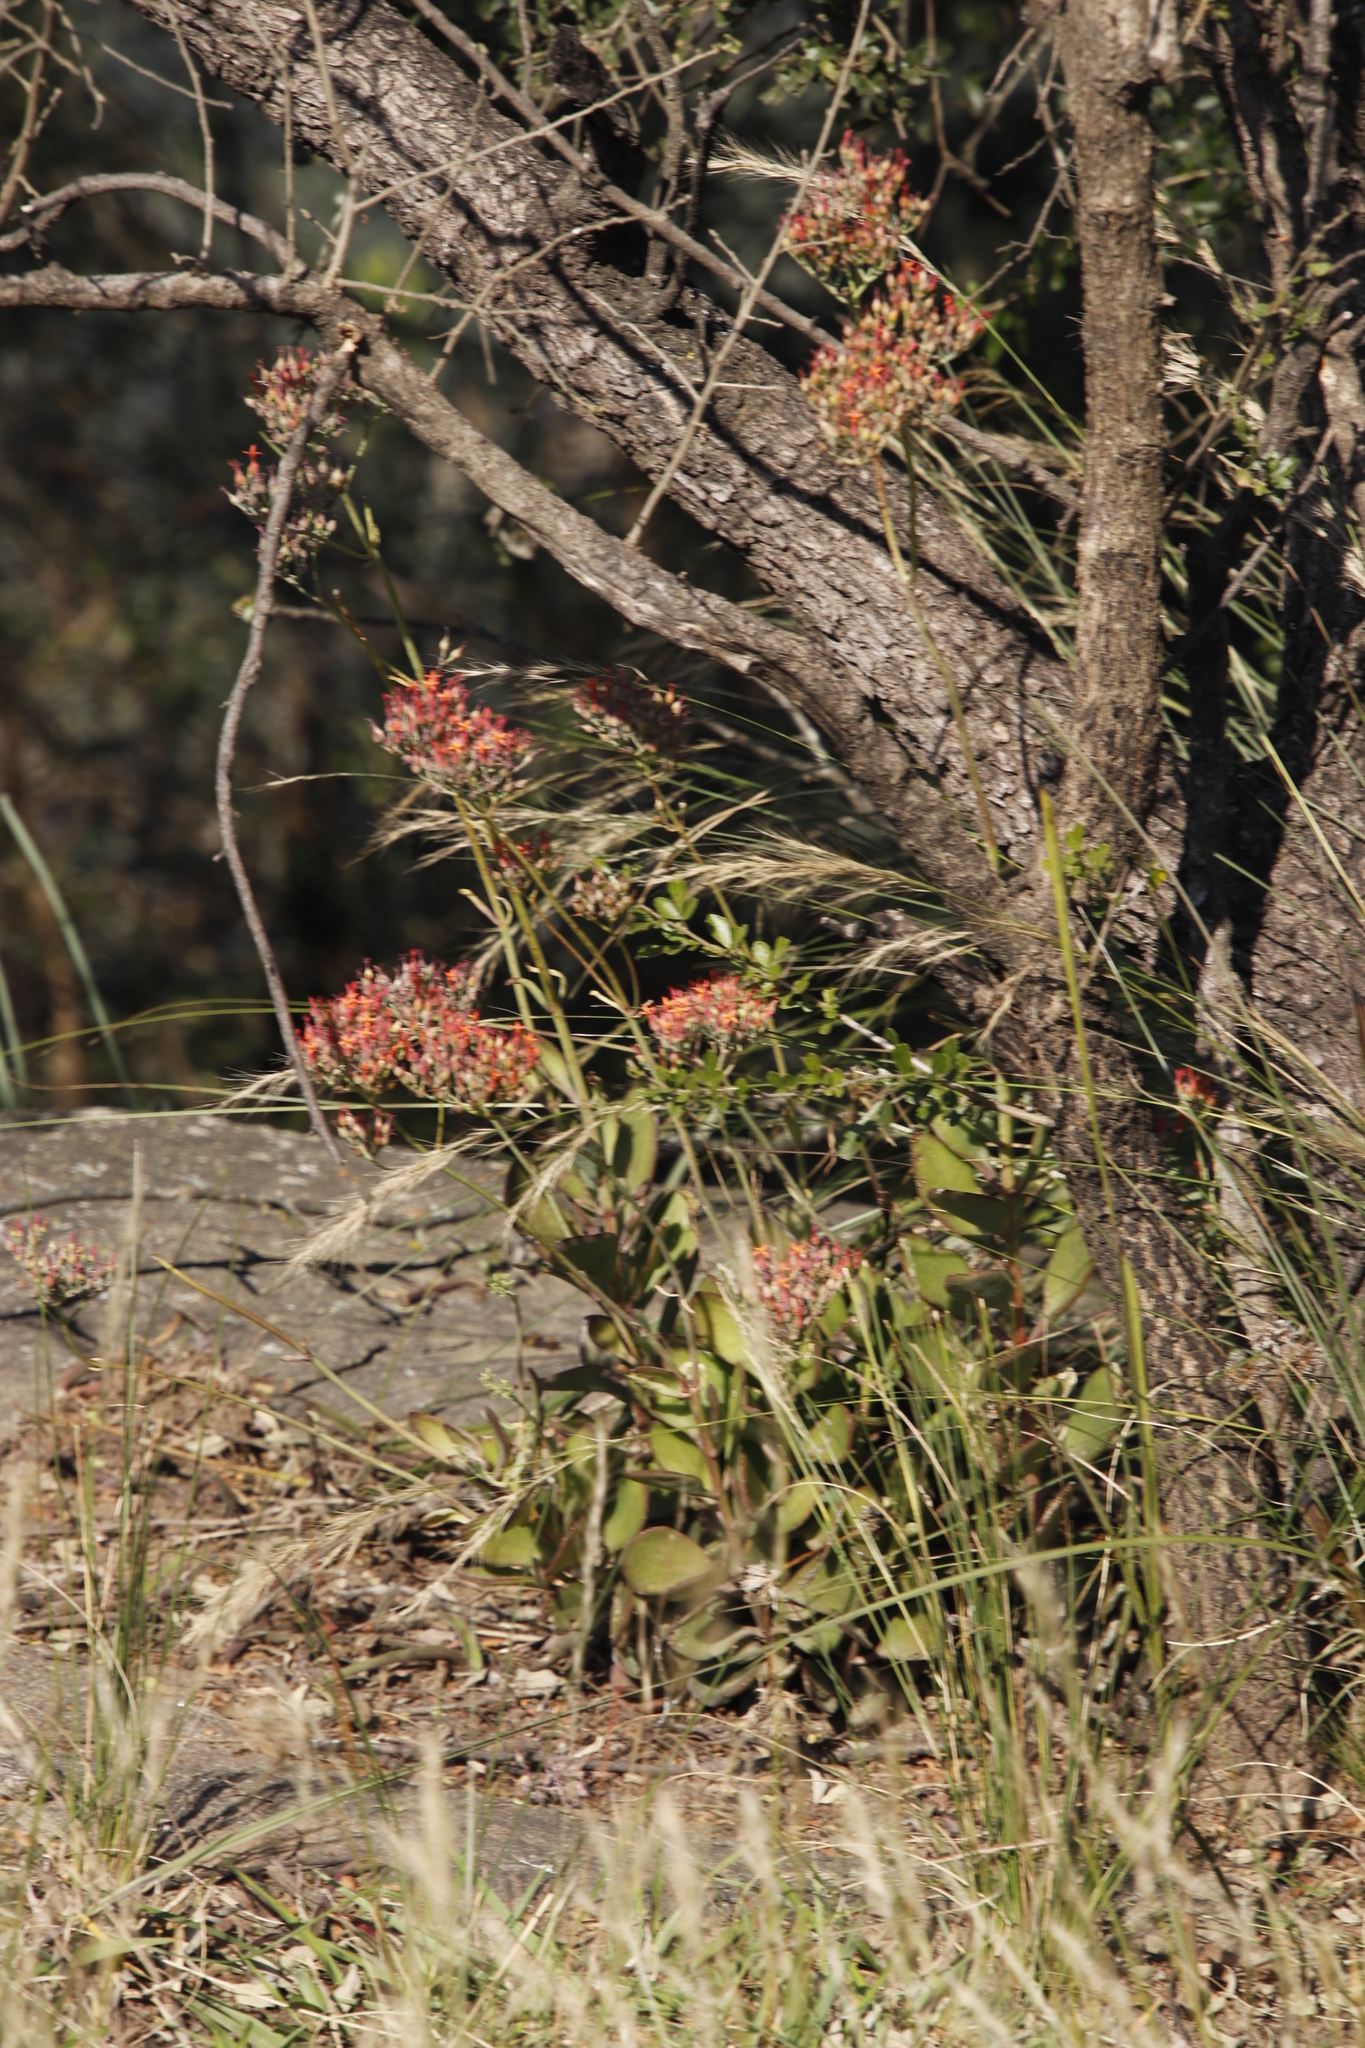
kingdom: Plantae
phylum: Tracheophyta
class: Magnoliopsida
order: Saxifragales
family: Crassulaceae
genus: Kalanchoe
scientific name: Kalanchoe rotundifolia
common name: Common kalanchoe
